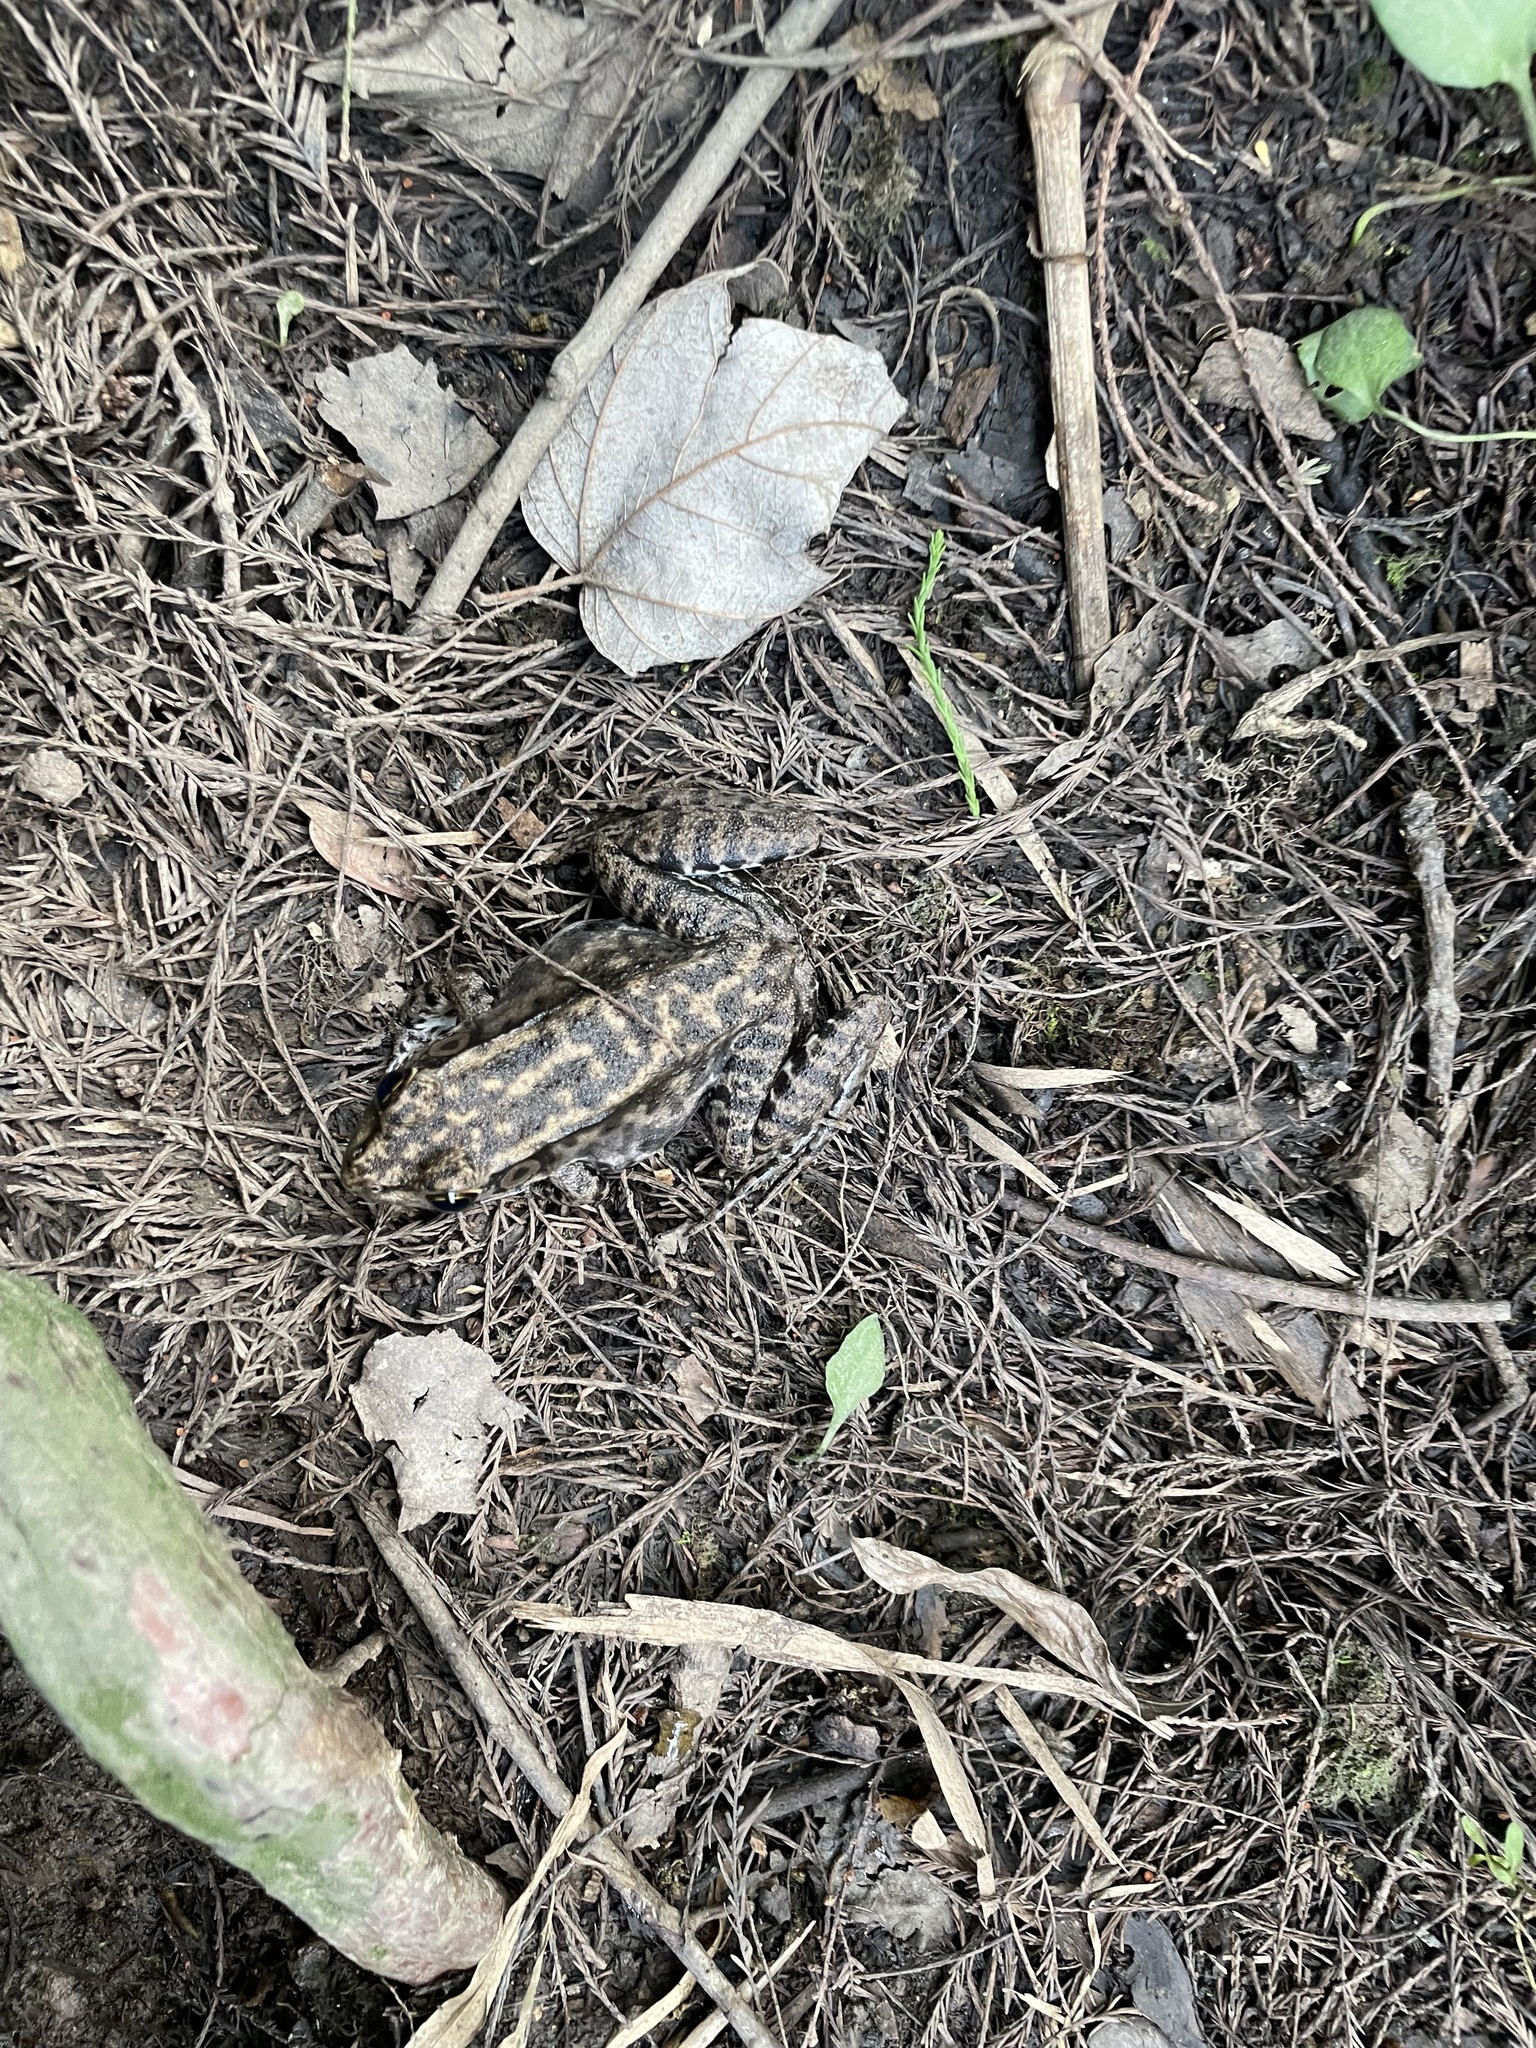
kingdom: Animalia
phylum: Chordata
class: Amphibia
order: Anura
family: Ranidae
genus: Lithobates
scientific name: Lithobates clamitans
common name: Green frog
